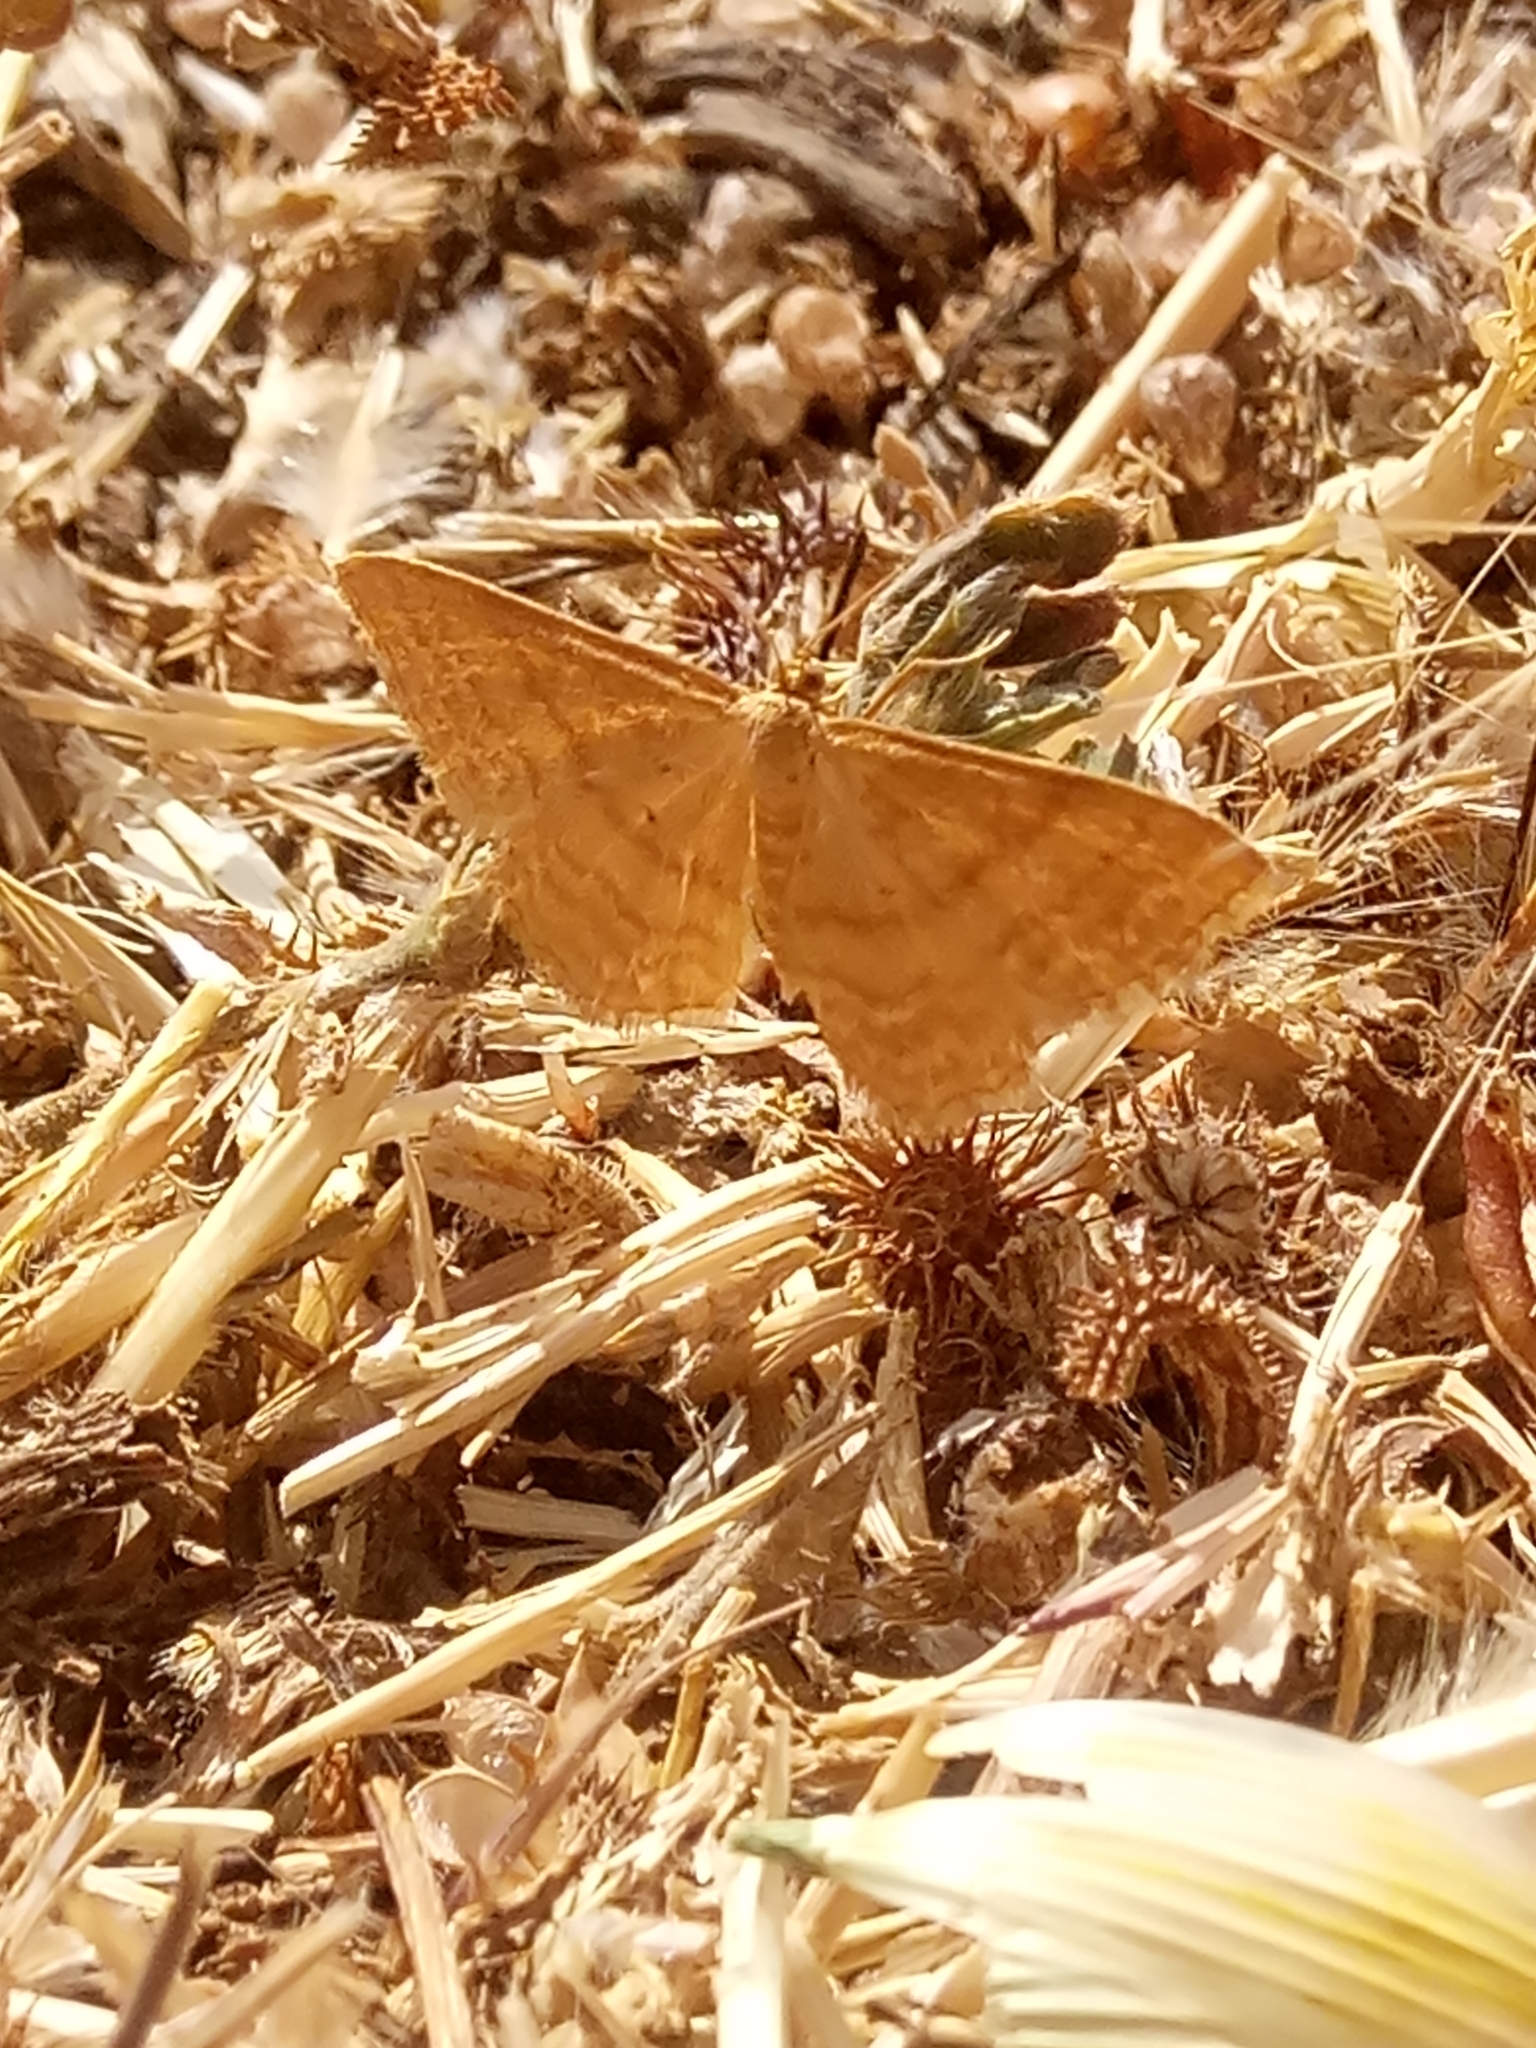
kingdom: Animalia
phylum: Arthropoda
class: Insecta
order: Lepidoptera
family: Geometridae
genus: Idaea
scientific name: Idaea ochrata
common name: Bright wave
